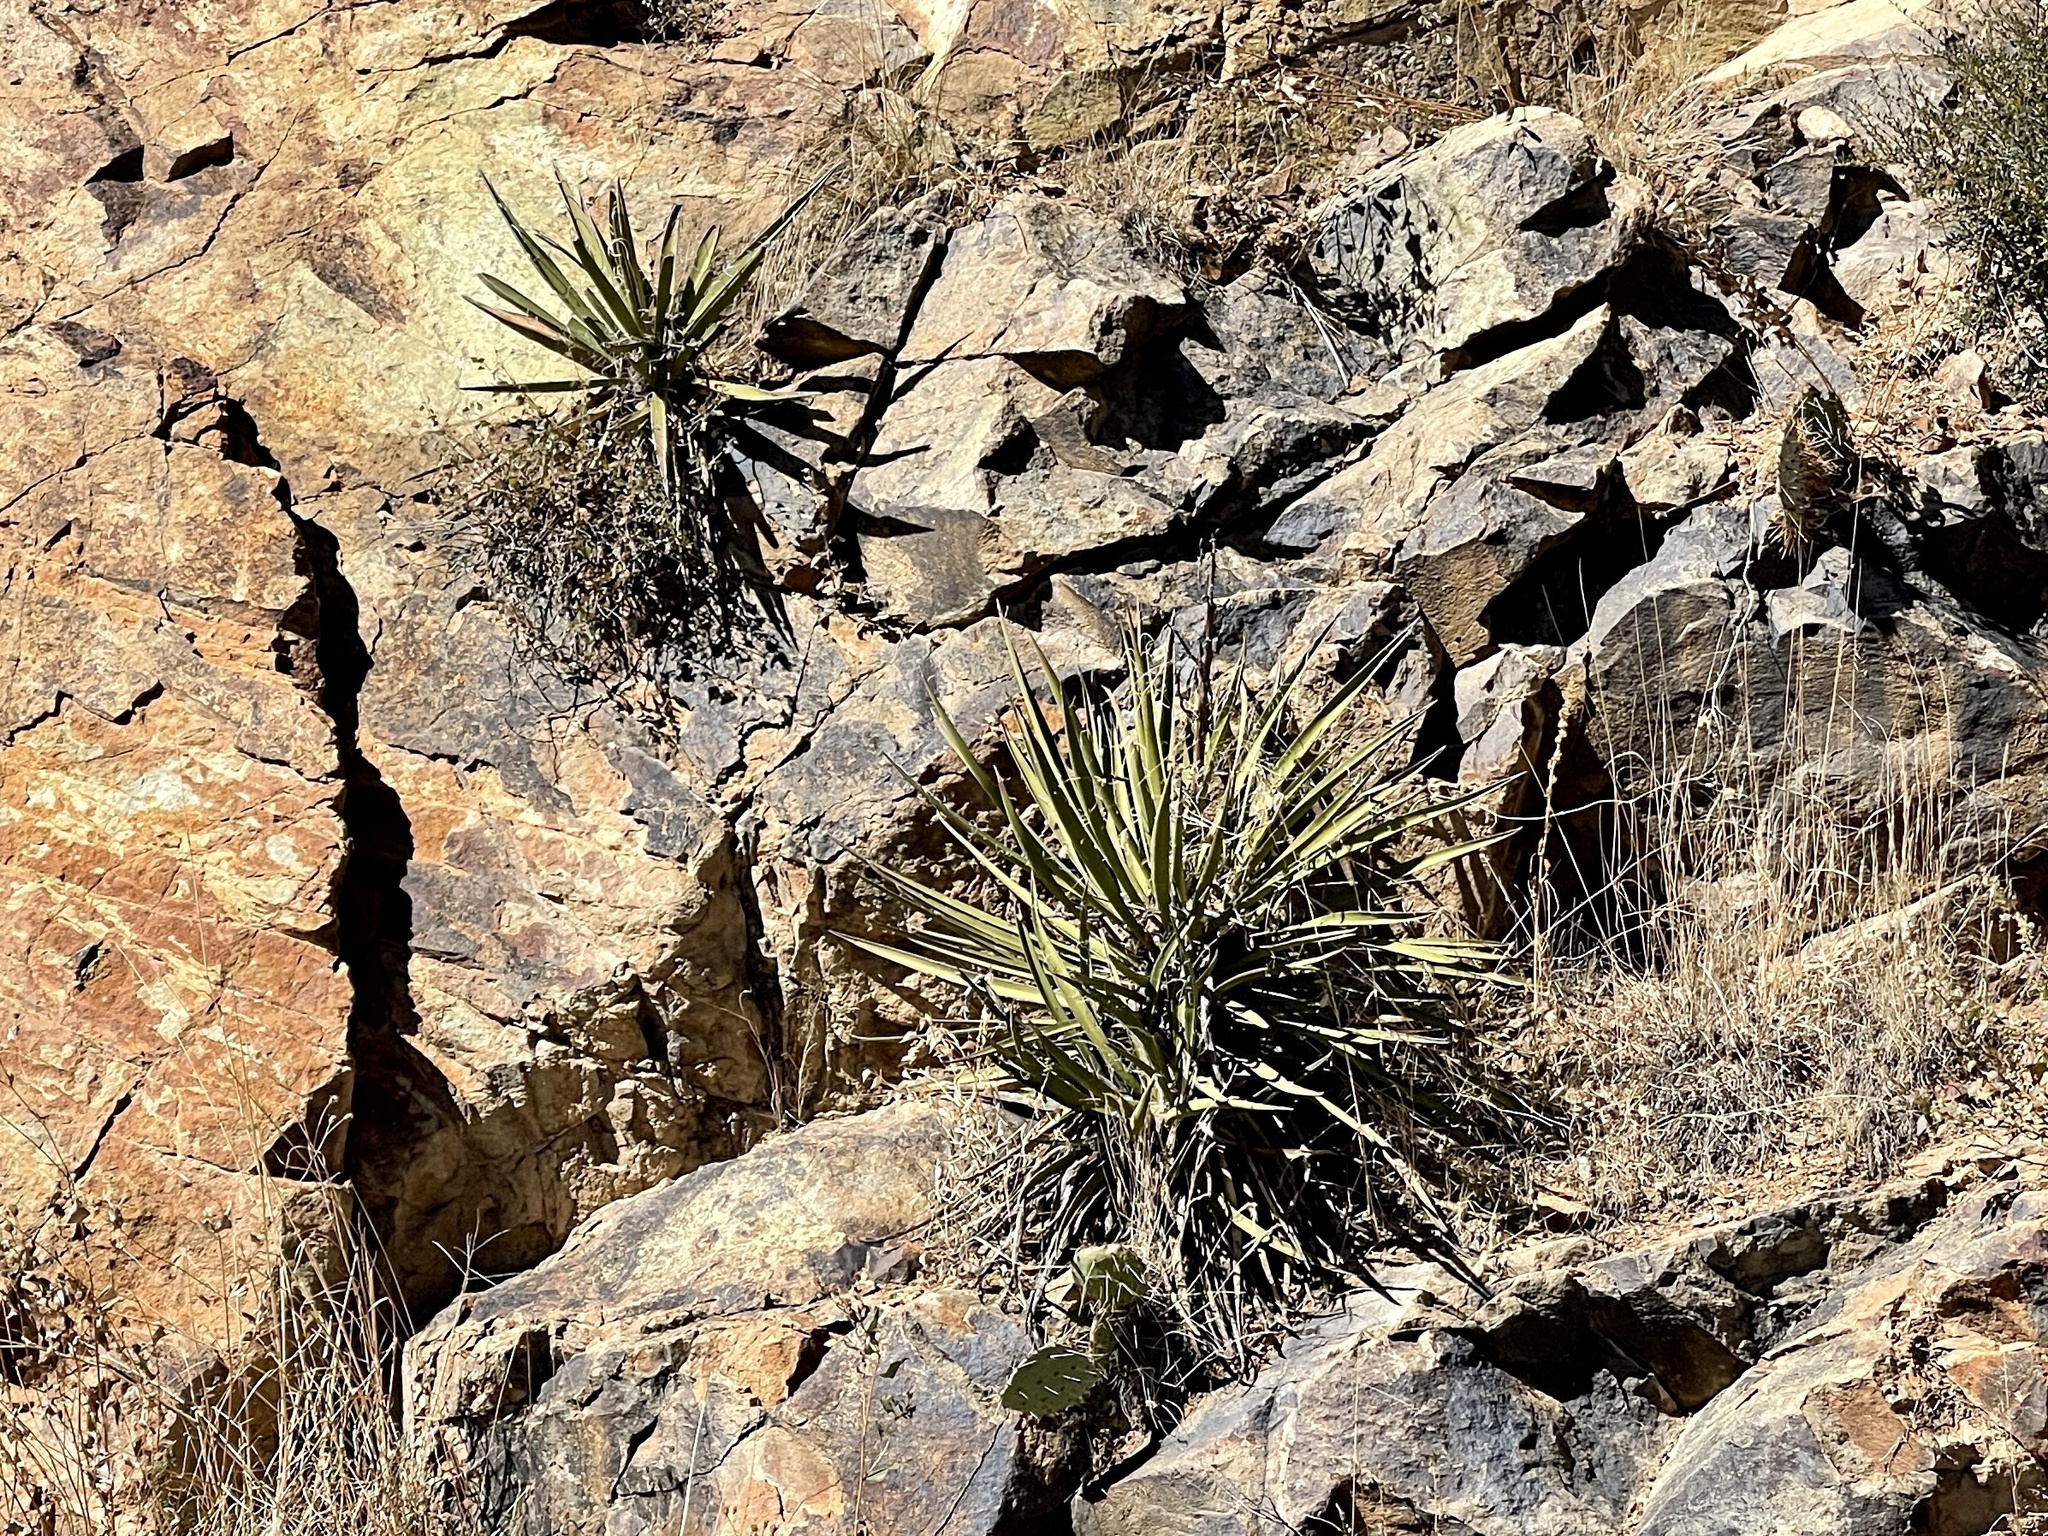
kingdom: Plantae
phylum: Tracheophyta
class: Liliopsida
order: Asparagales
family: Asparagaceae
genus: Yucca
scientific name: Yucca baccata
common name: Banana yucca
